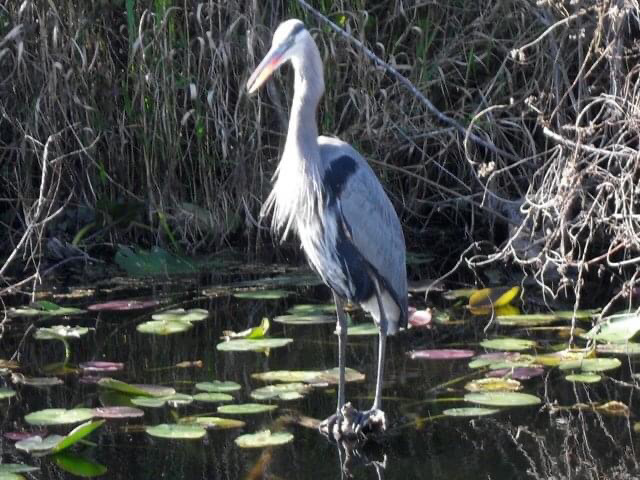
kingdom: Animalia
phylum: Chordata
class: Aves
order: Pelecaniformes
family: Ardeidae
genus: Ardea
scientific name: Ardea herodias
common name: Great blue heron
